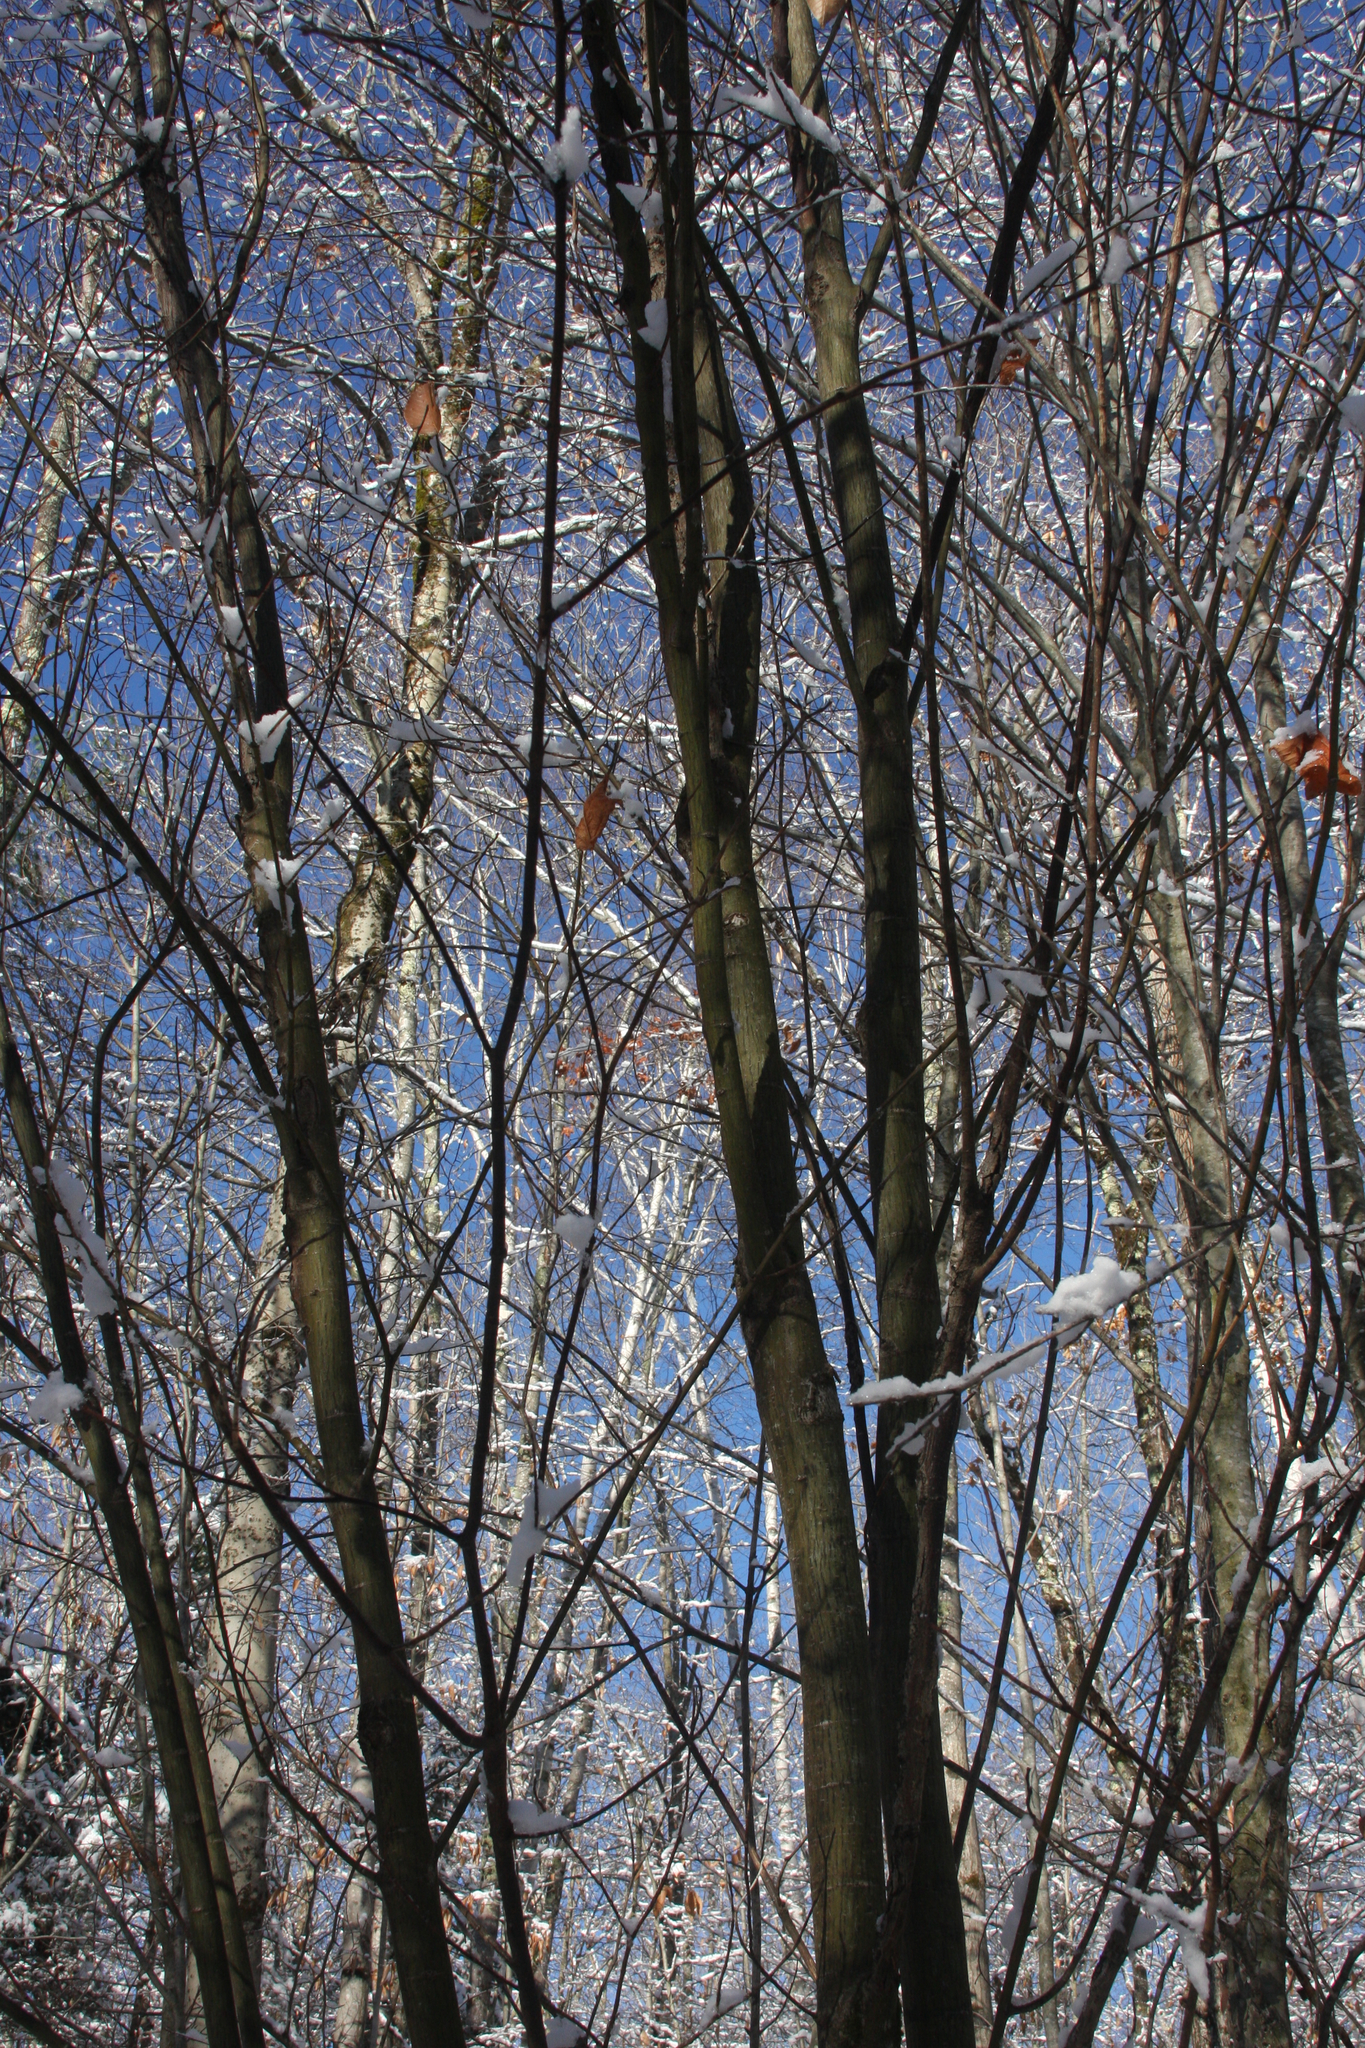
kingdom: Plantae
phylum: Tracheophyta
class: Magnoliopsida
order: Sapindales
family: Sapindaceae
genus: Acer
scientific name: Acer pensylvanicum
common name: Moosewood
